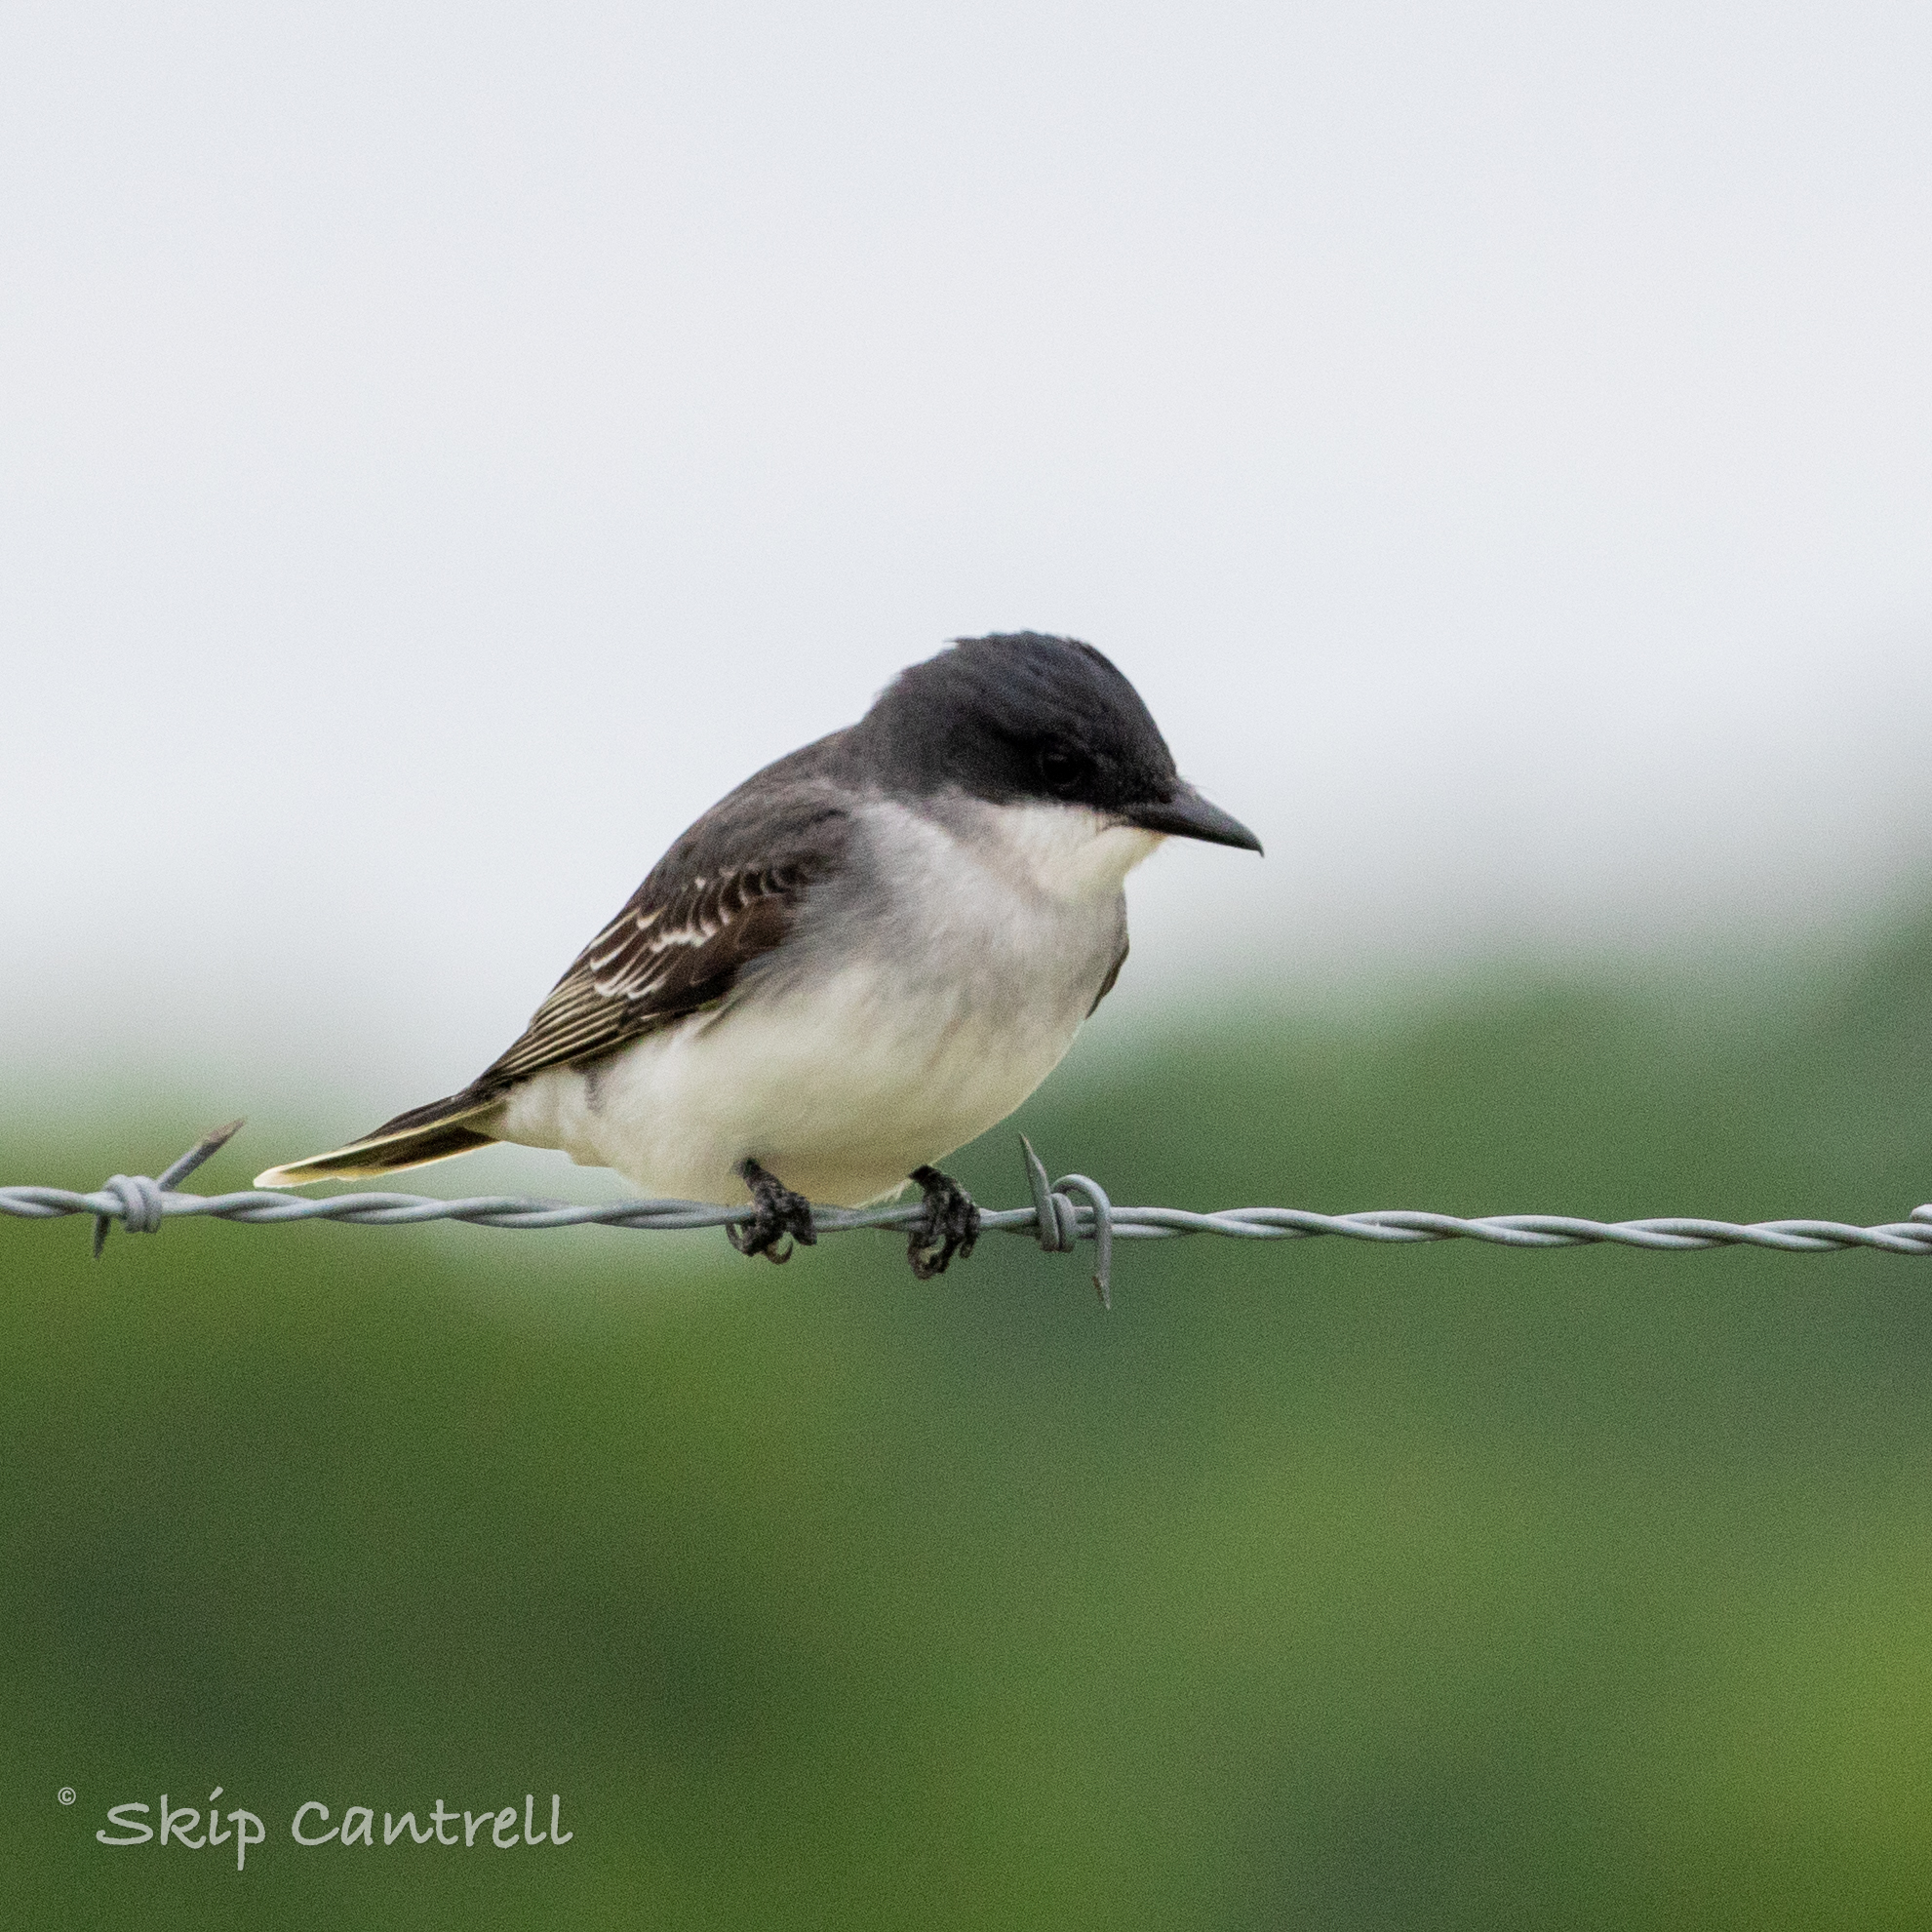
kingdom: Animalia
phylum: Chordata
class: Aves
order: Passeriformes
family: Tyrannidae
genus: Tyrannus
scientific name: Tyrannus tyrannus
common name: Eastern kingbird
